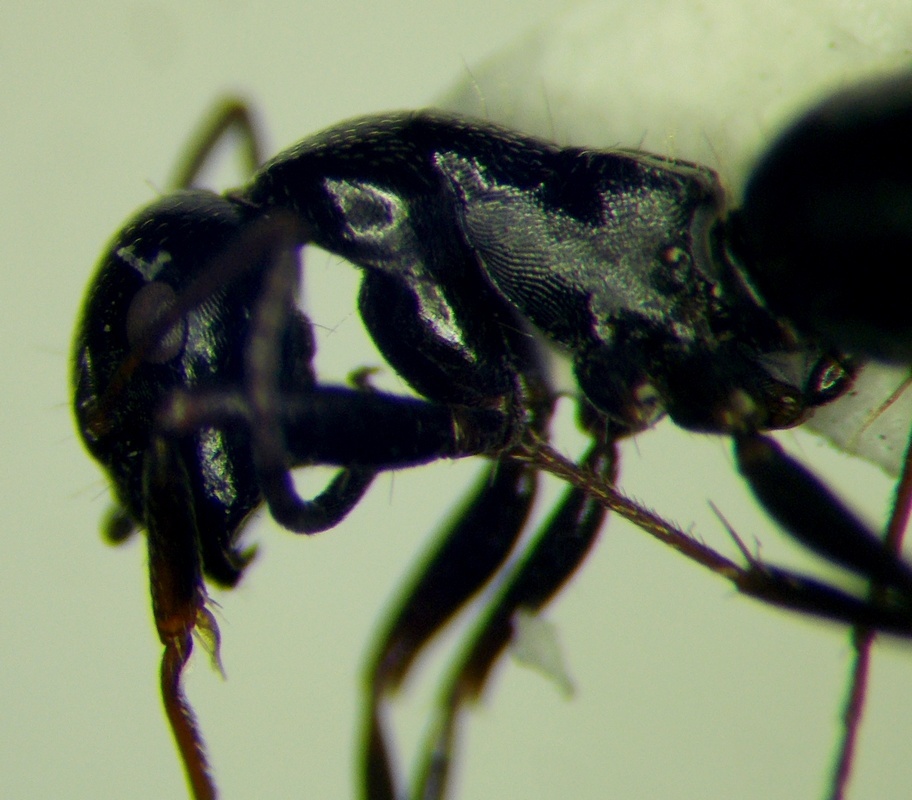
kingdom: Animalia
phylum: Arthropoda
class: Insecta
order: Hymenoptera
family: Formicidae
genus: Camponotus
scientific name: Camponotus piceus
